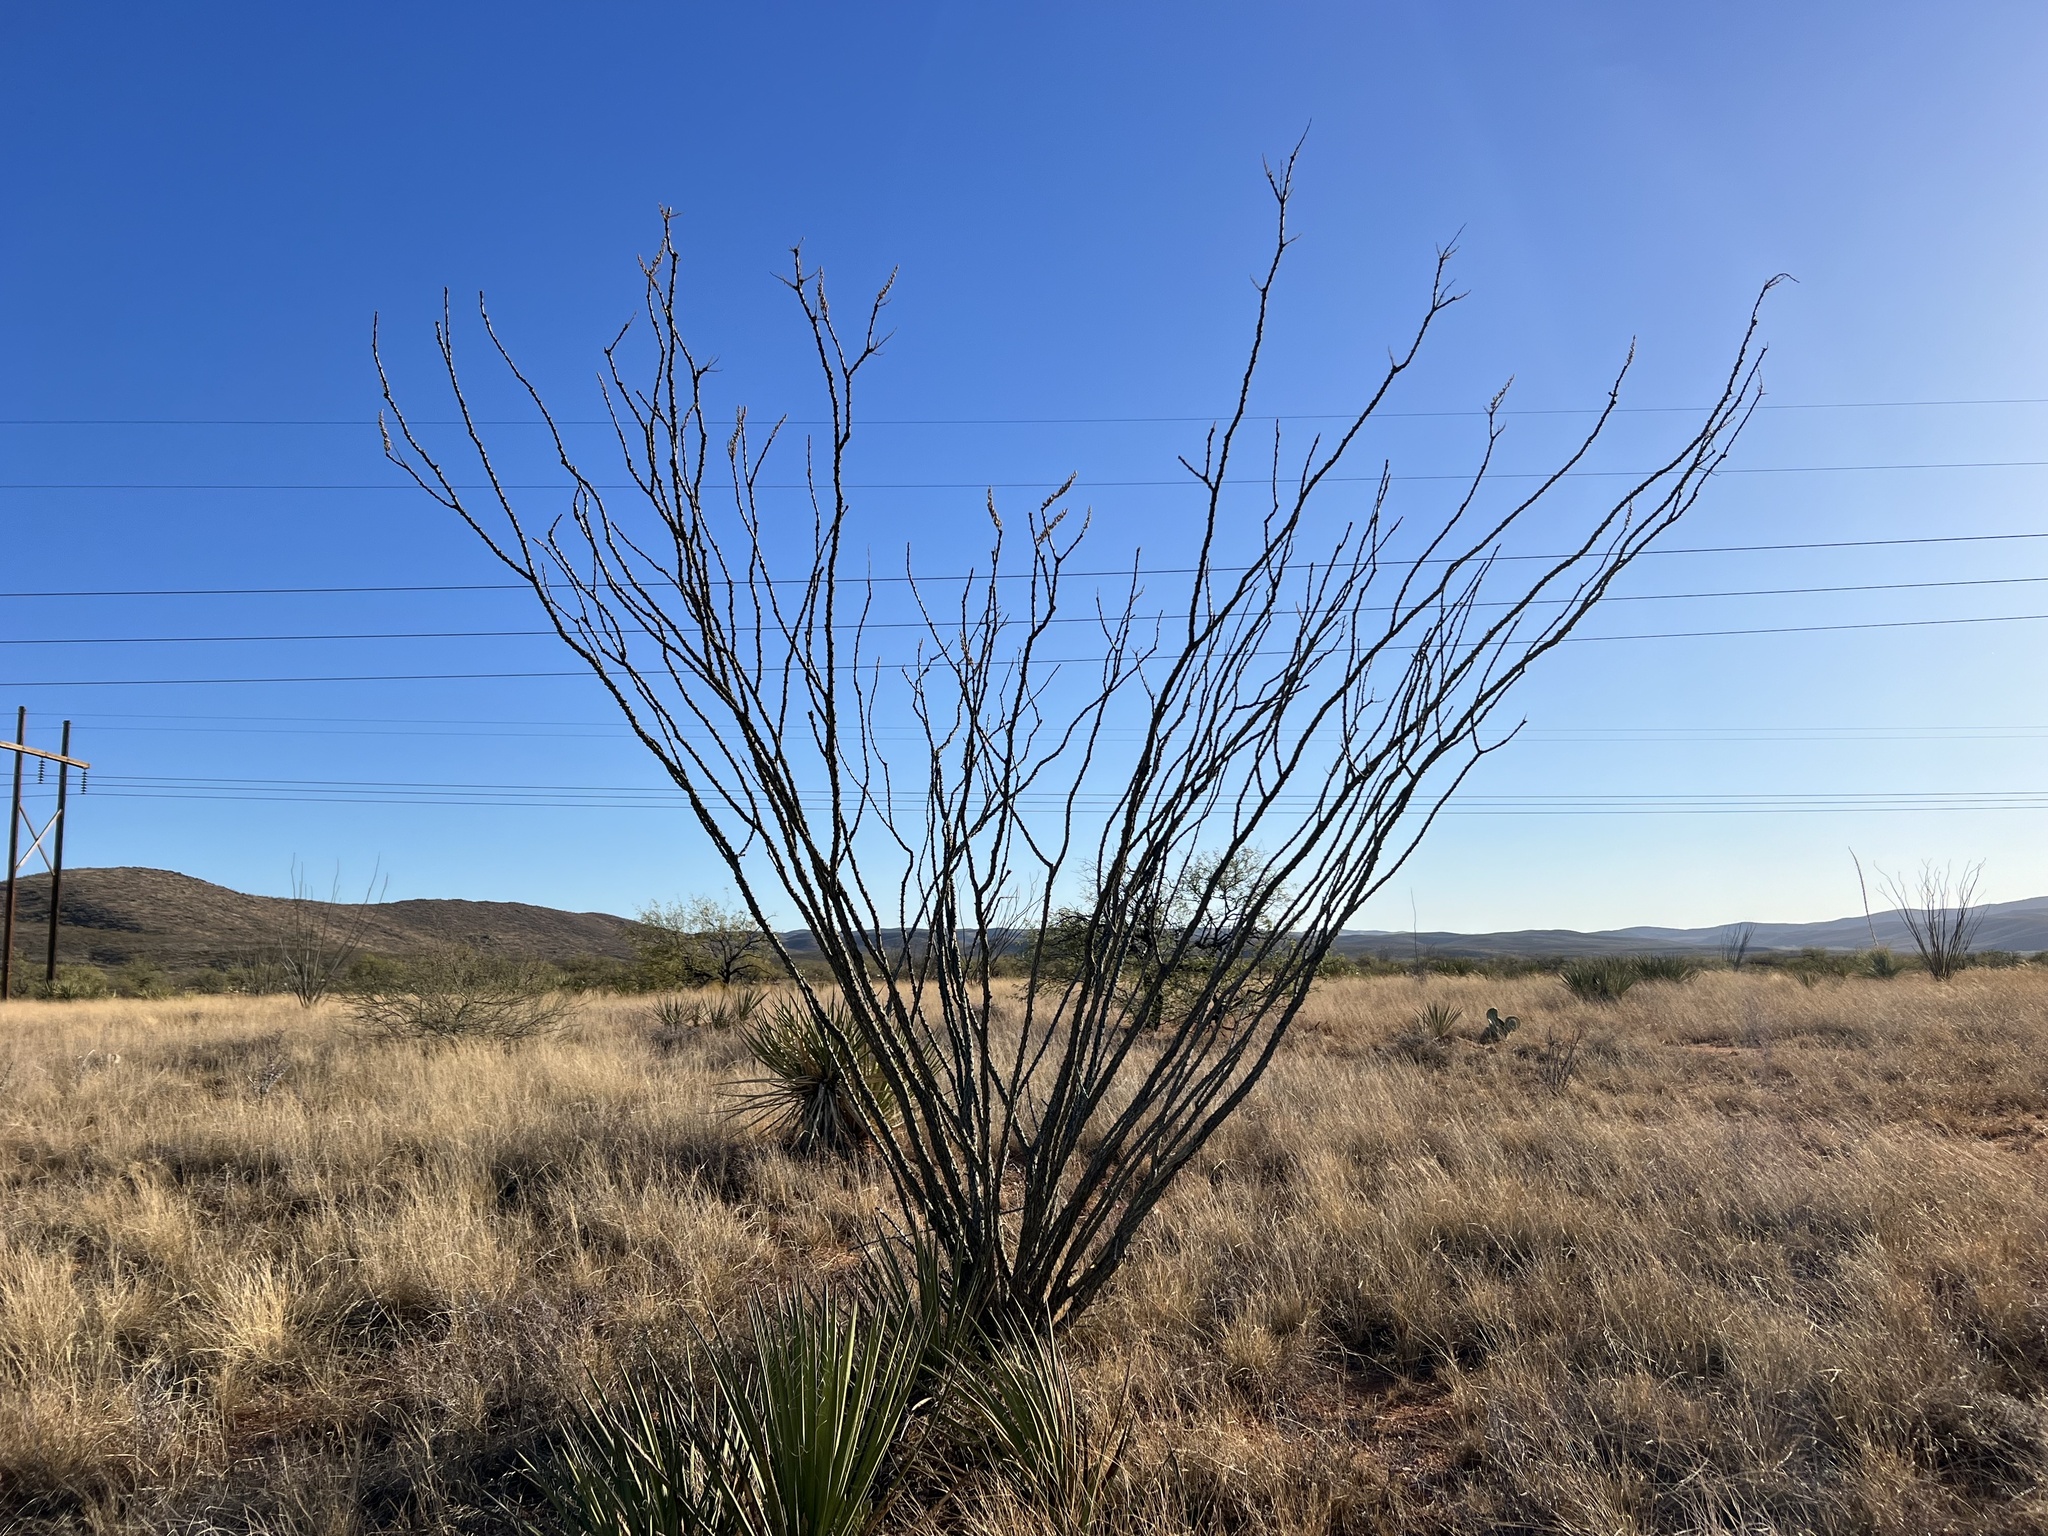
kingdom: Plantae
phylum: Tracheophyta
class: Magnoliopsida
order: Ericales
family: Fouquieriaceae
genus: Fouquieria
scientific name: Fouquieria splendens
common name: Vine-cactus
